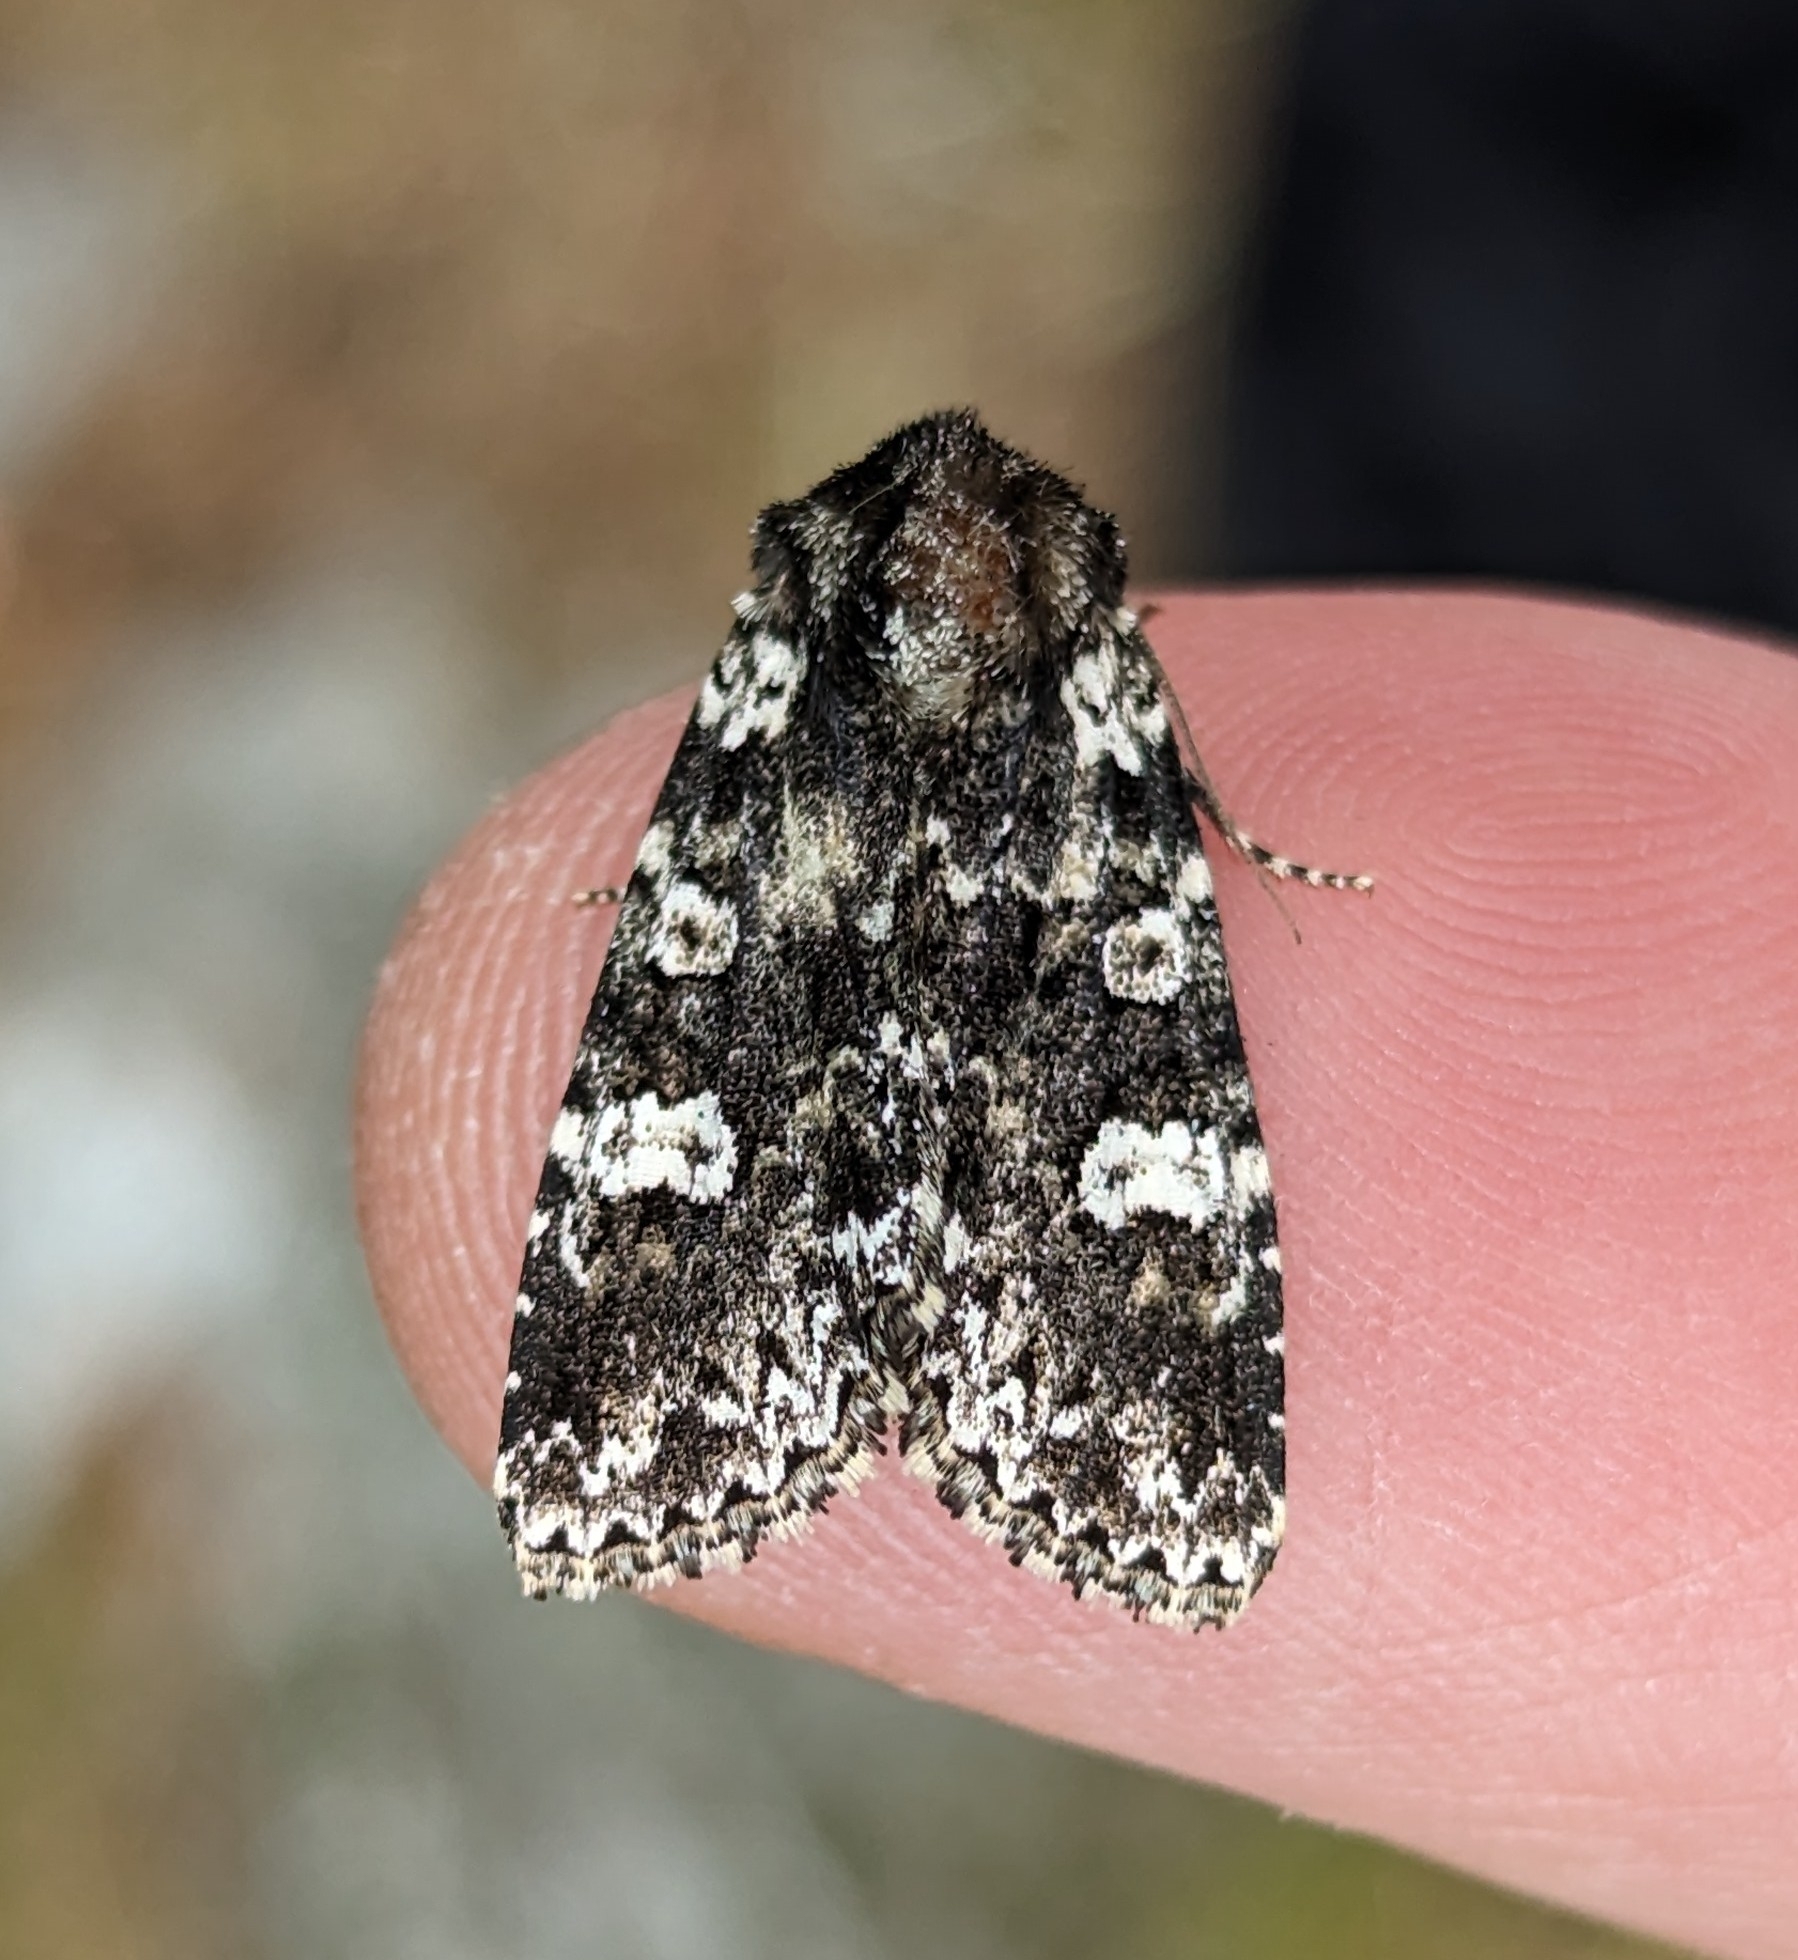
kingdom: Animalia
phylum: Arthropoda
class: Insecta
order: Lepidoptera
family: Noctuidae
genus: Melanchra
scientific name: Melanchra adjuncta
